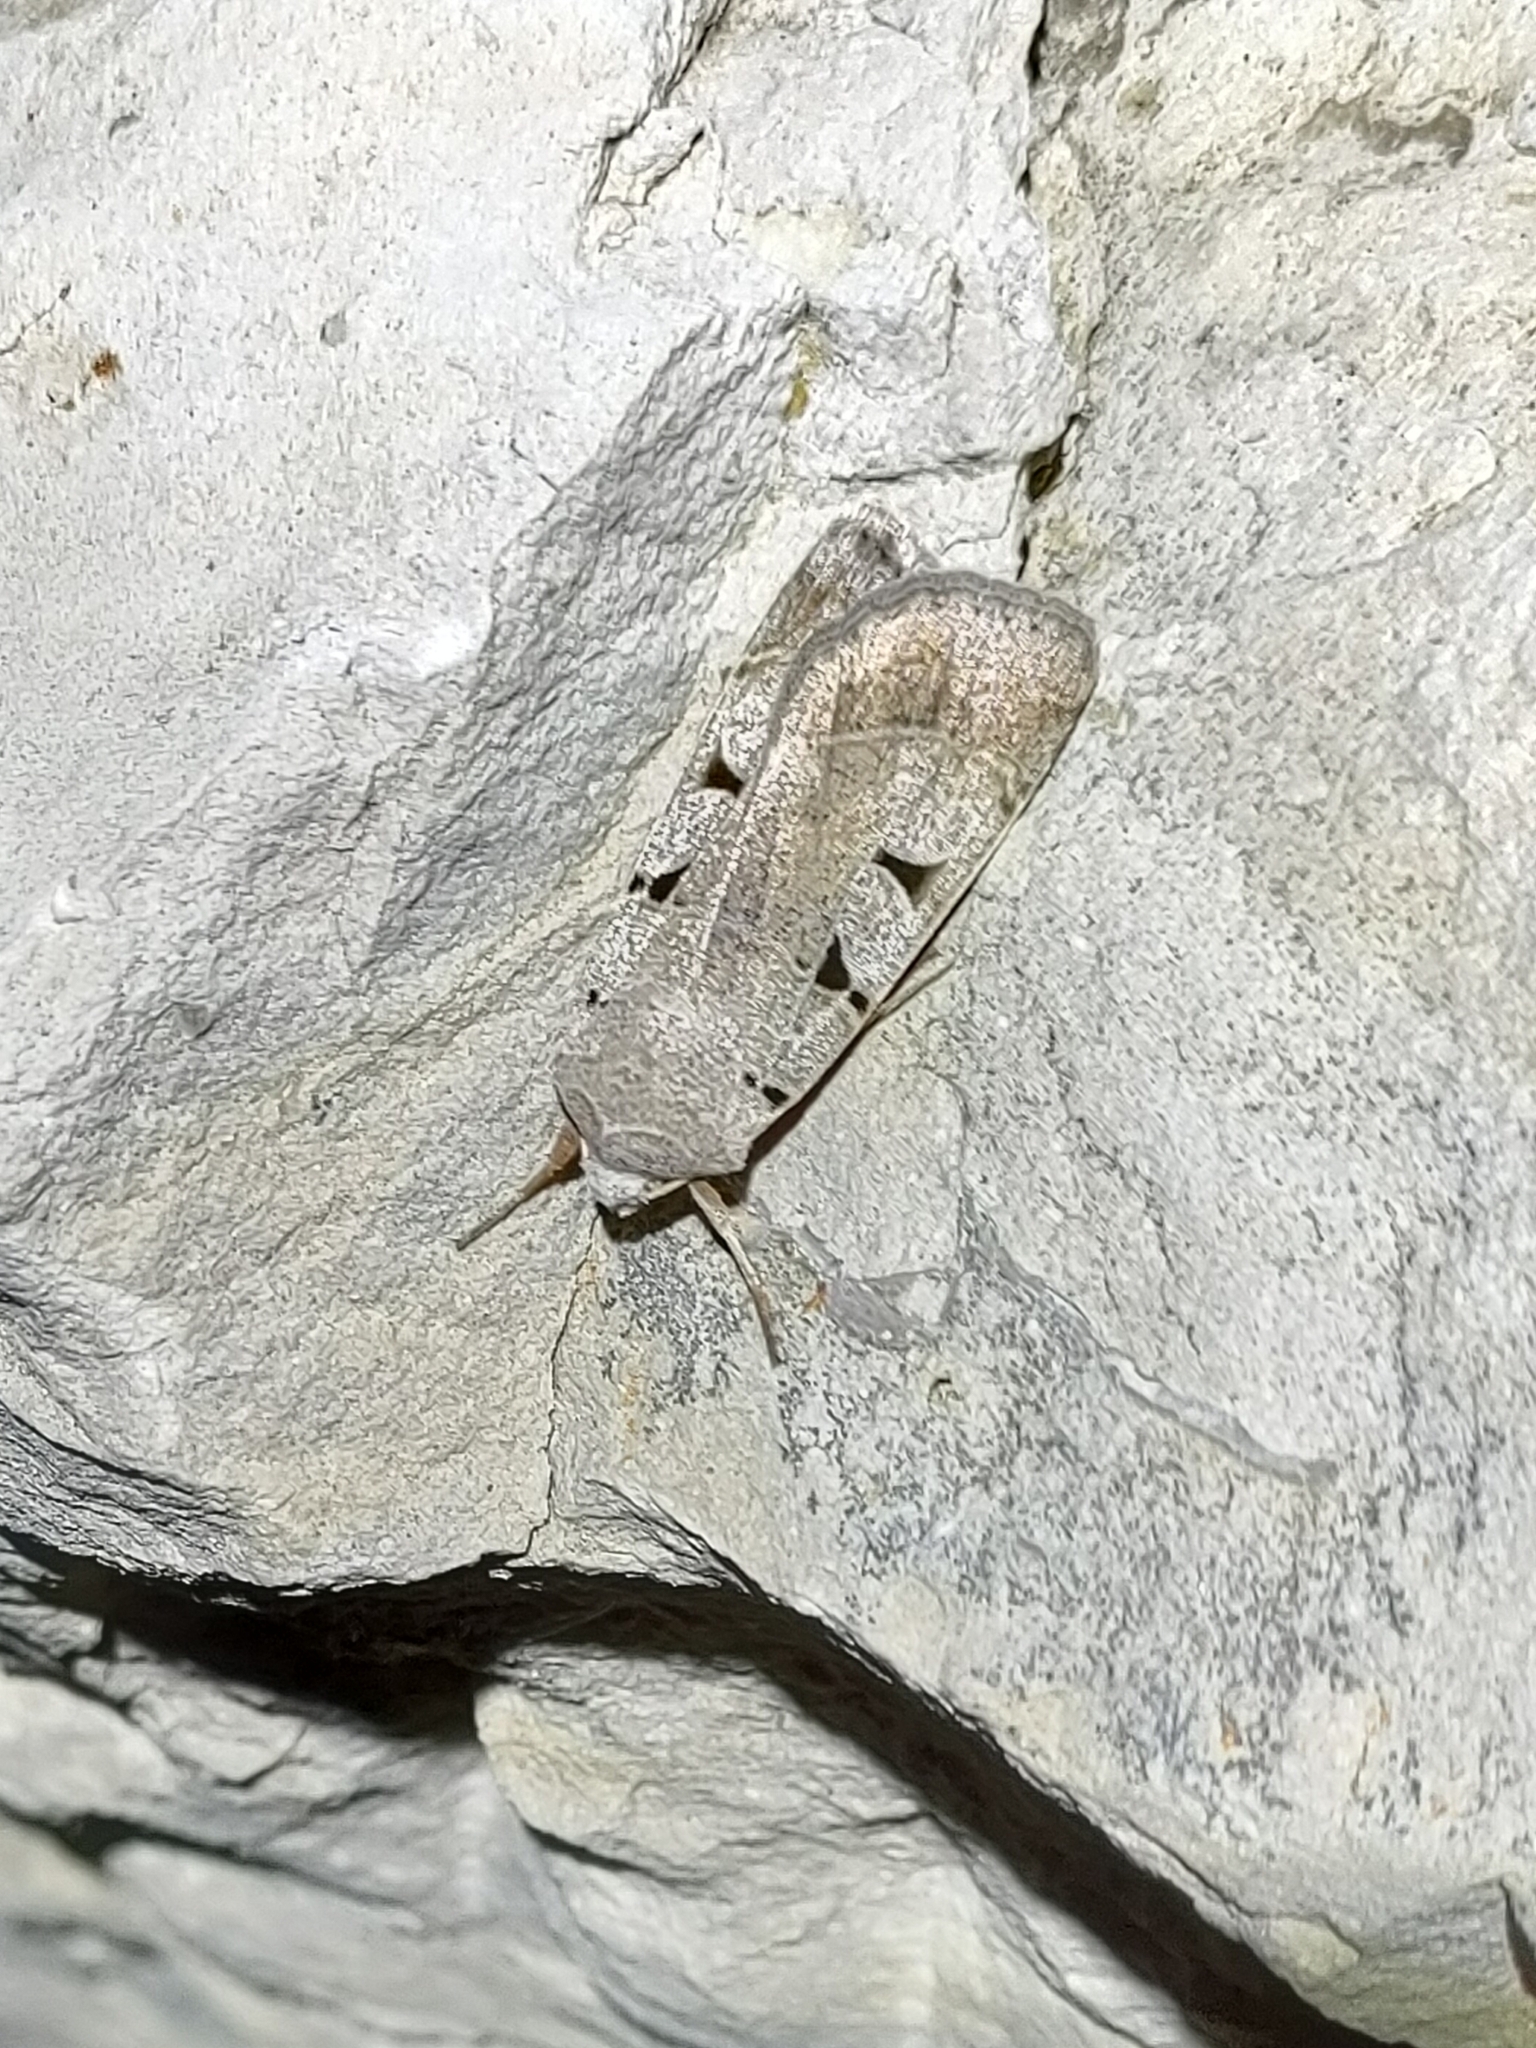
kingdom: Animalia
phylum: Arthropoda
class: Insecta
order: Lepidoptera
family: Noctuidae
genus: Eugnorisma
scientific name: Eugnorisma glareosa
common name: Autumnal rustic
